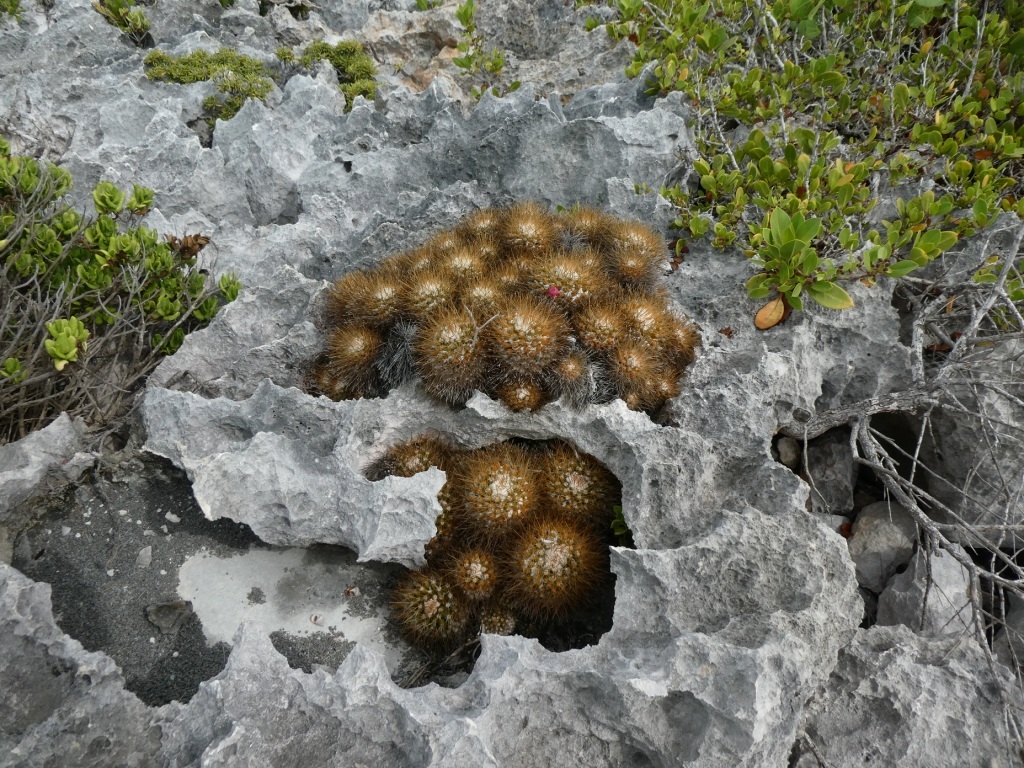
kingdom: Plantae
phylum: Tracheophyta
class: Magnoliopsida
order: Caryophyllales
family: Cactaceae
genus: Mammillaria
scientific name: Mammillaria nivosa
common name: Woolly nipple cactus
